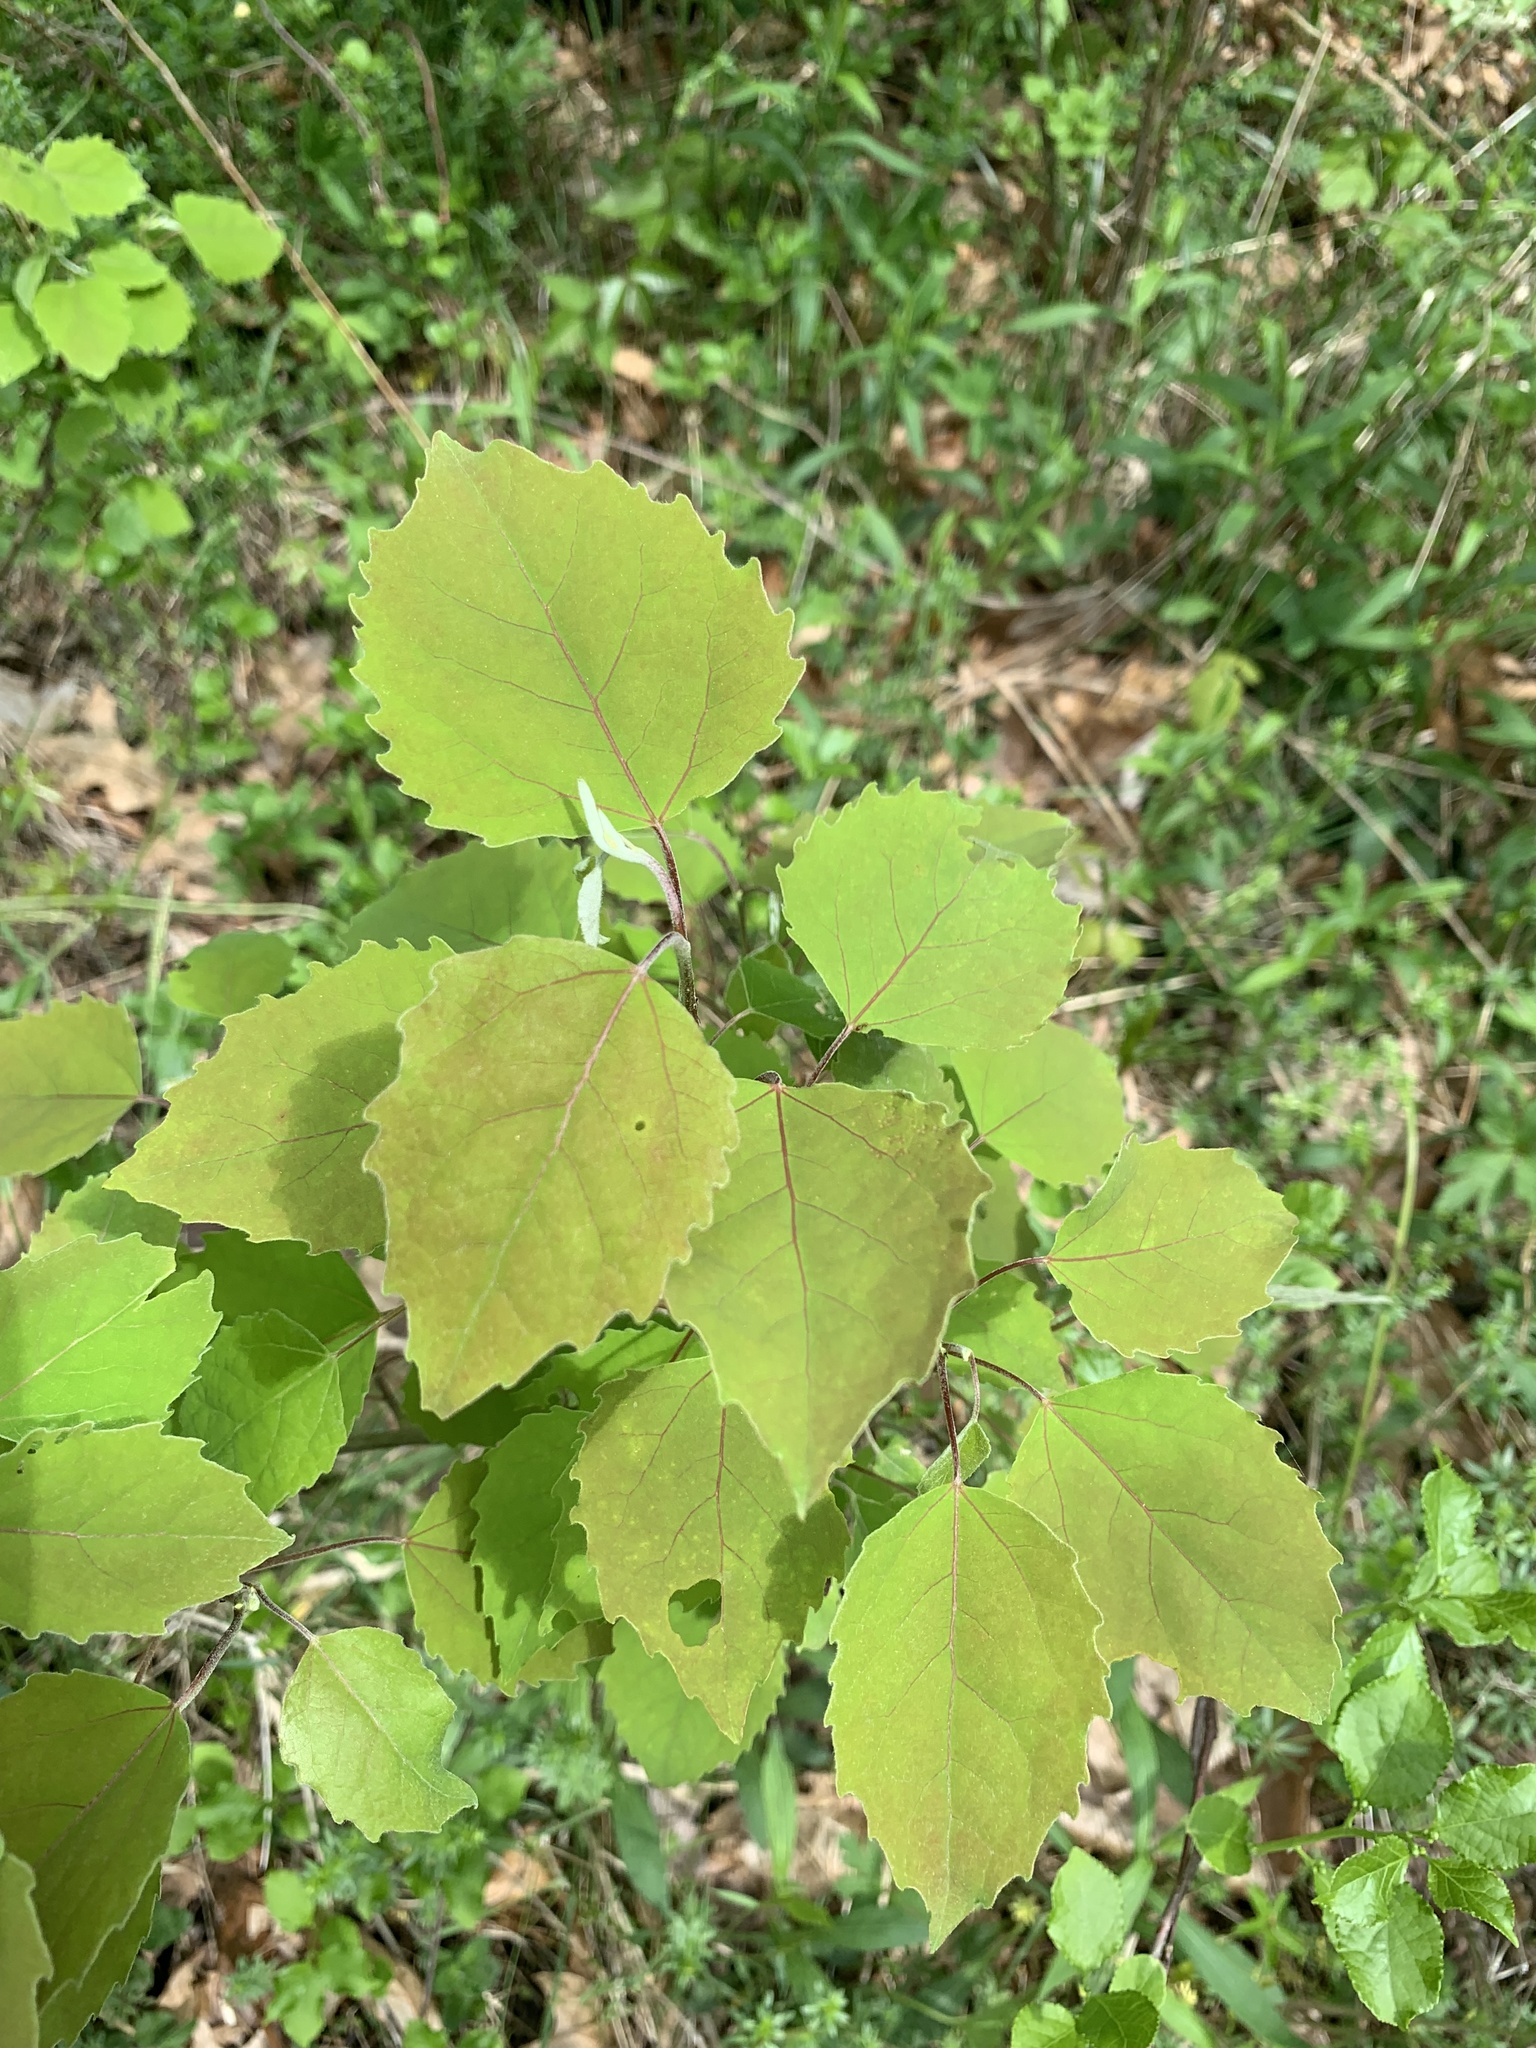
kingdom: Plantae
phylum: Tracheophyta
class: Magnoliopsida
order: Malpighiales
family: Salicaceae
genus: Populus
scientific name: Populus grandidentata
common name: Bigtooth aspen
